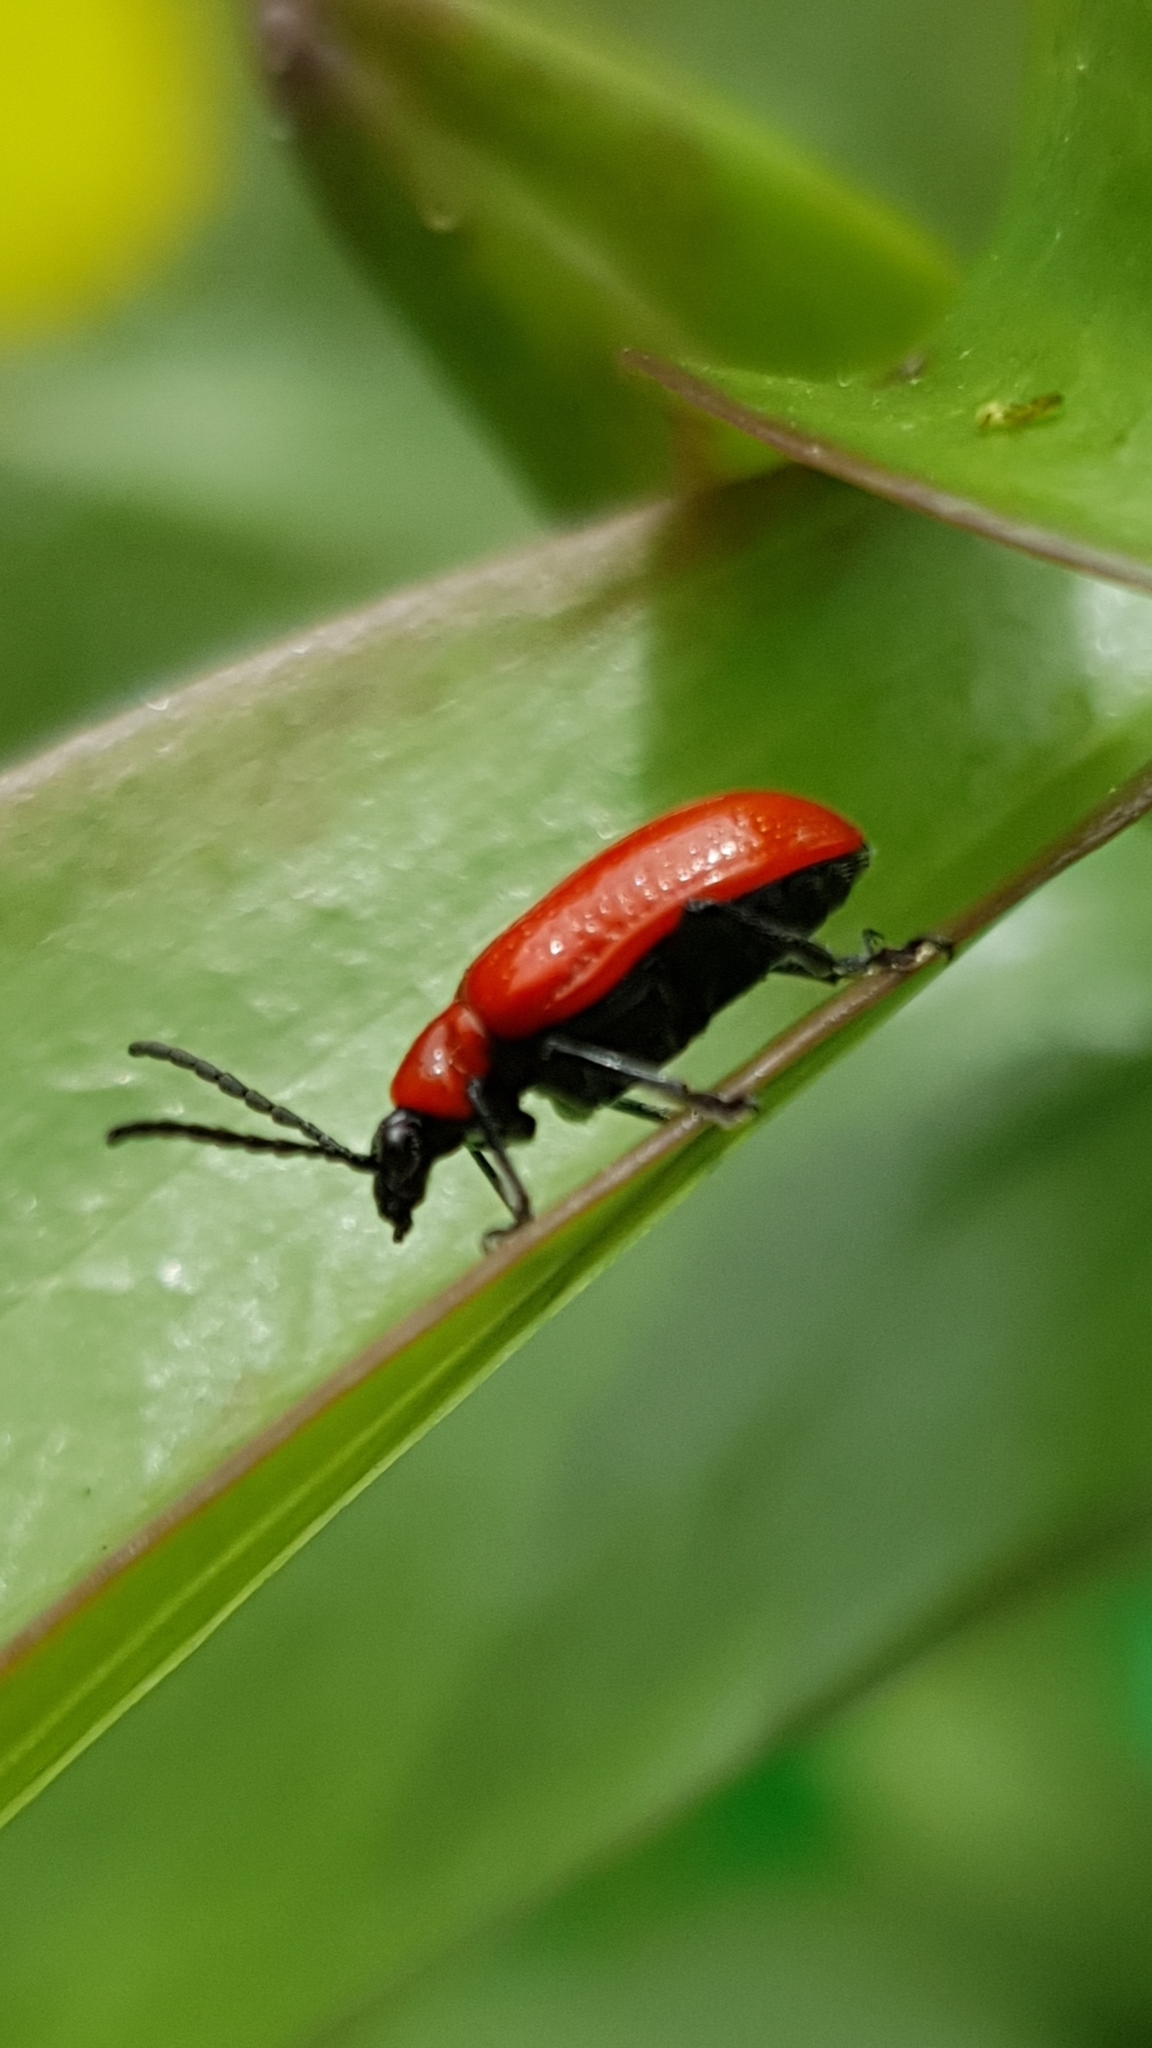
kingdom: Animalia
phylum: Arthropoda
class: Insecta
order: Coleoptera
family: Chrysomelidae
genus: Lilioceris
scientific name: Lilioceris lilii
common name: Lily beetle
